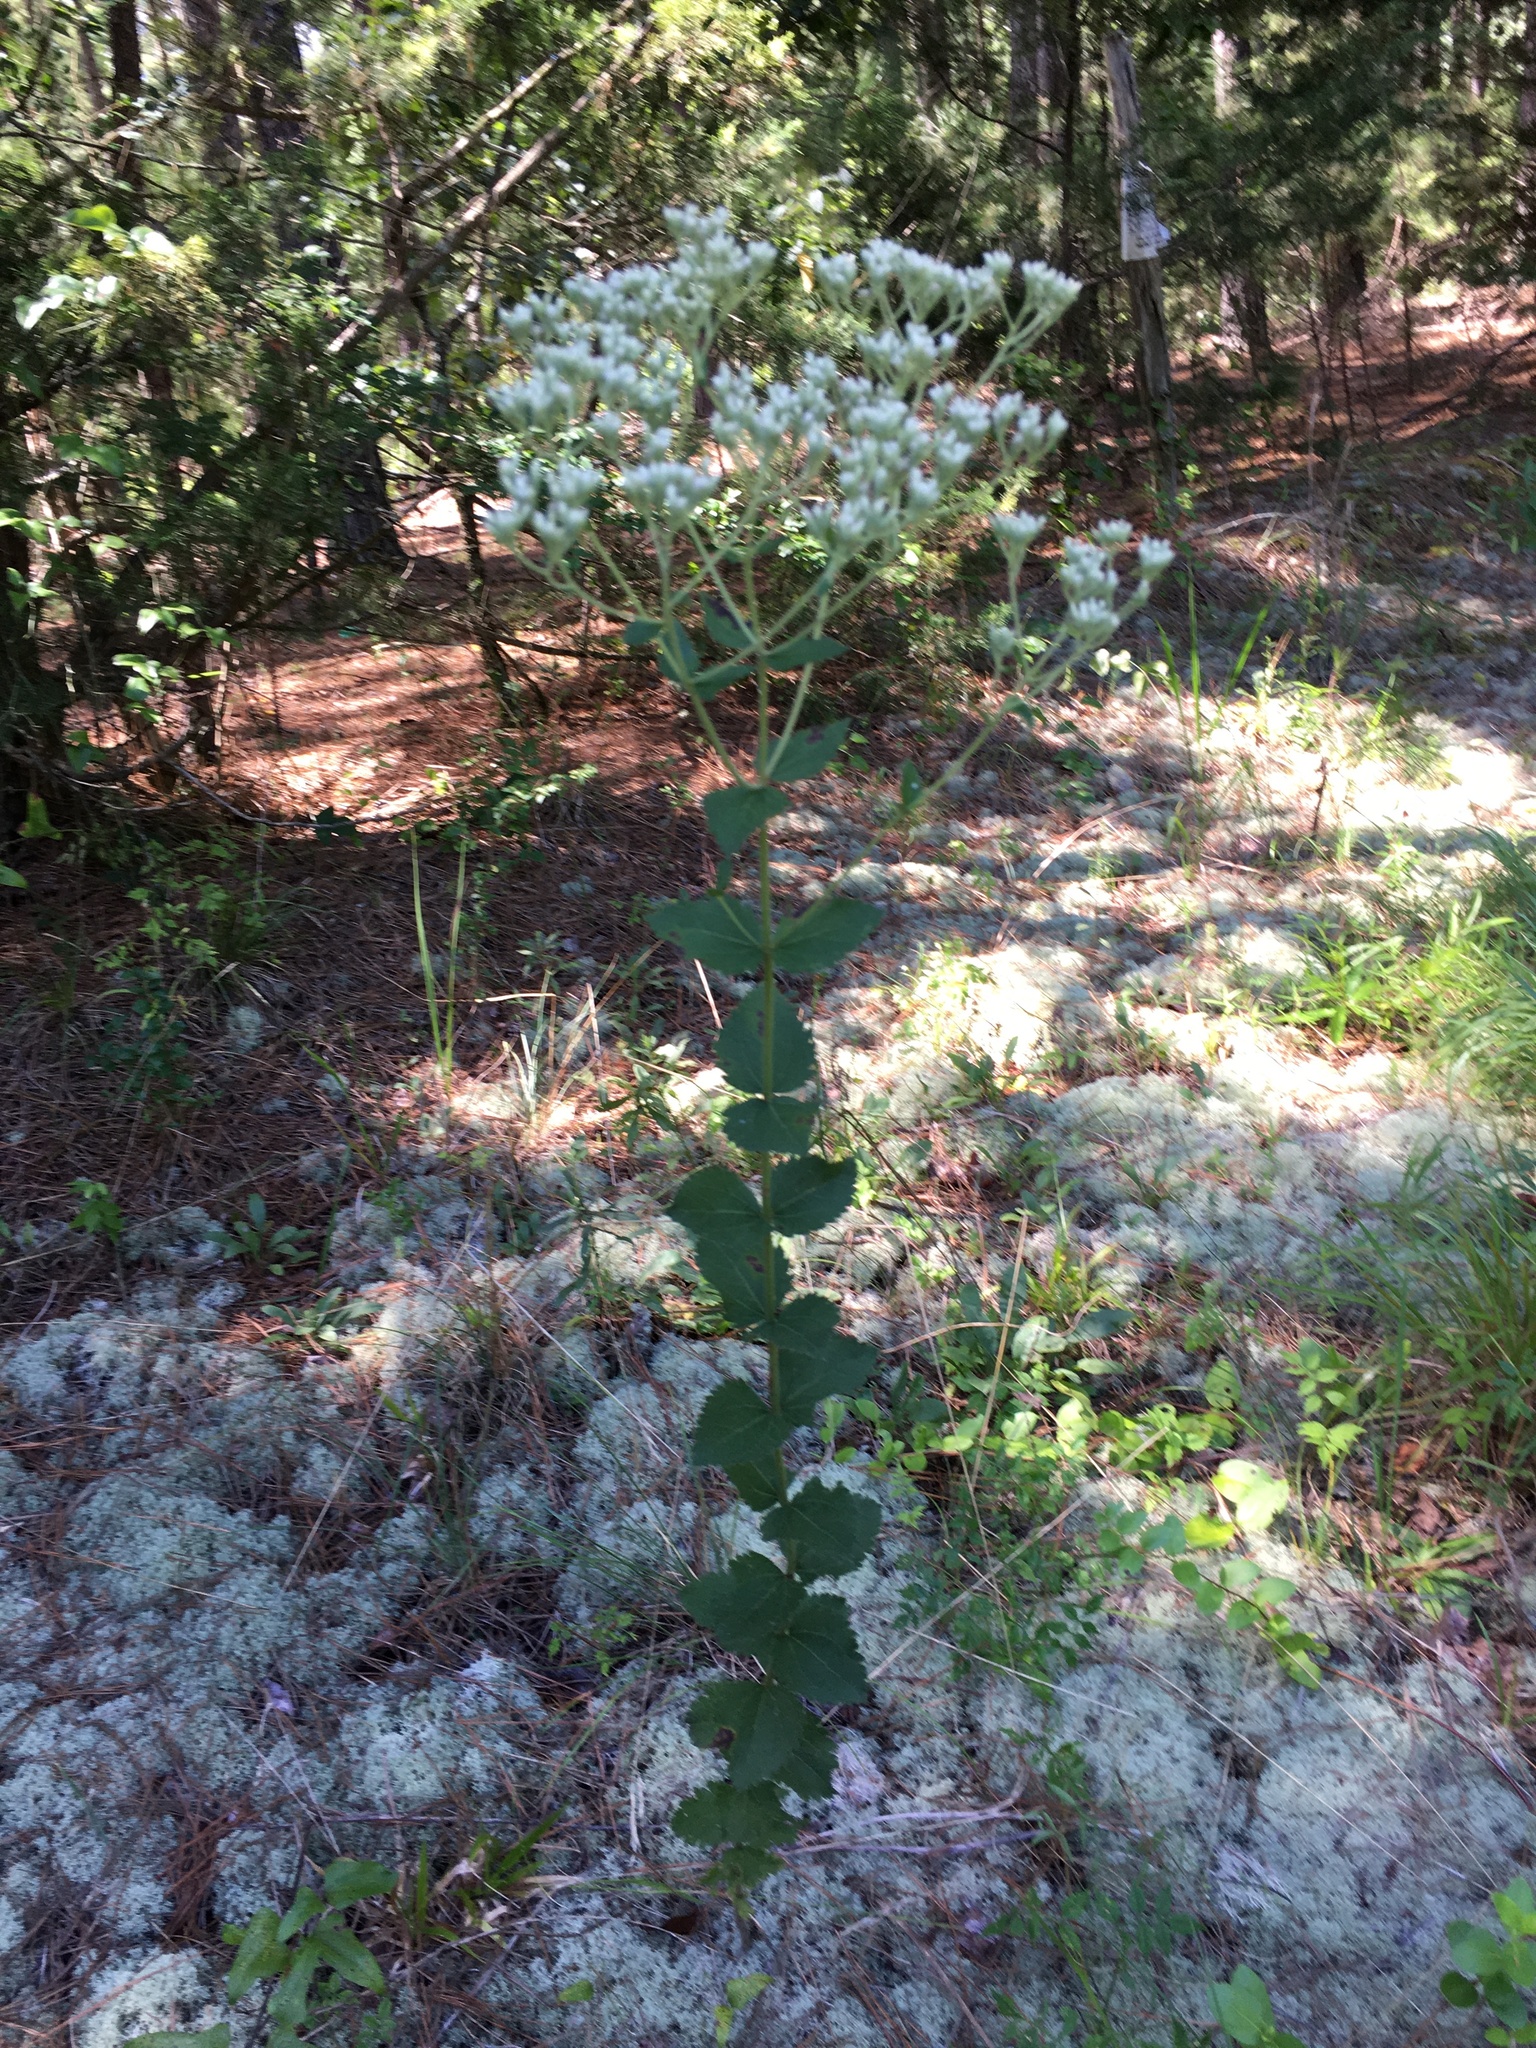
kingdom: Plantae
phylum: Tracheophyta
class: Magnoliopsida
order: Asterales
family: Asteraceae
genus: Eupatorium
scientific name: Eupatorium rotundifolium
